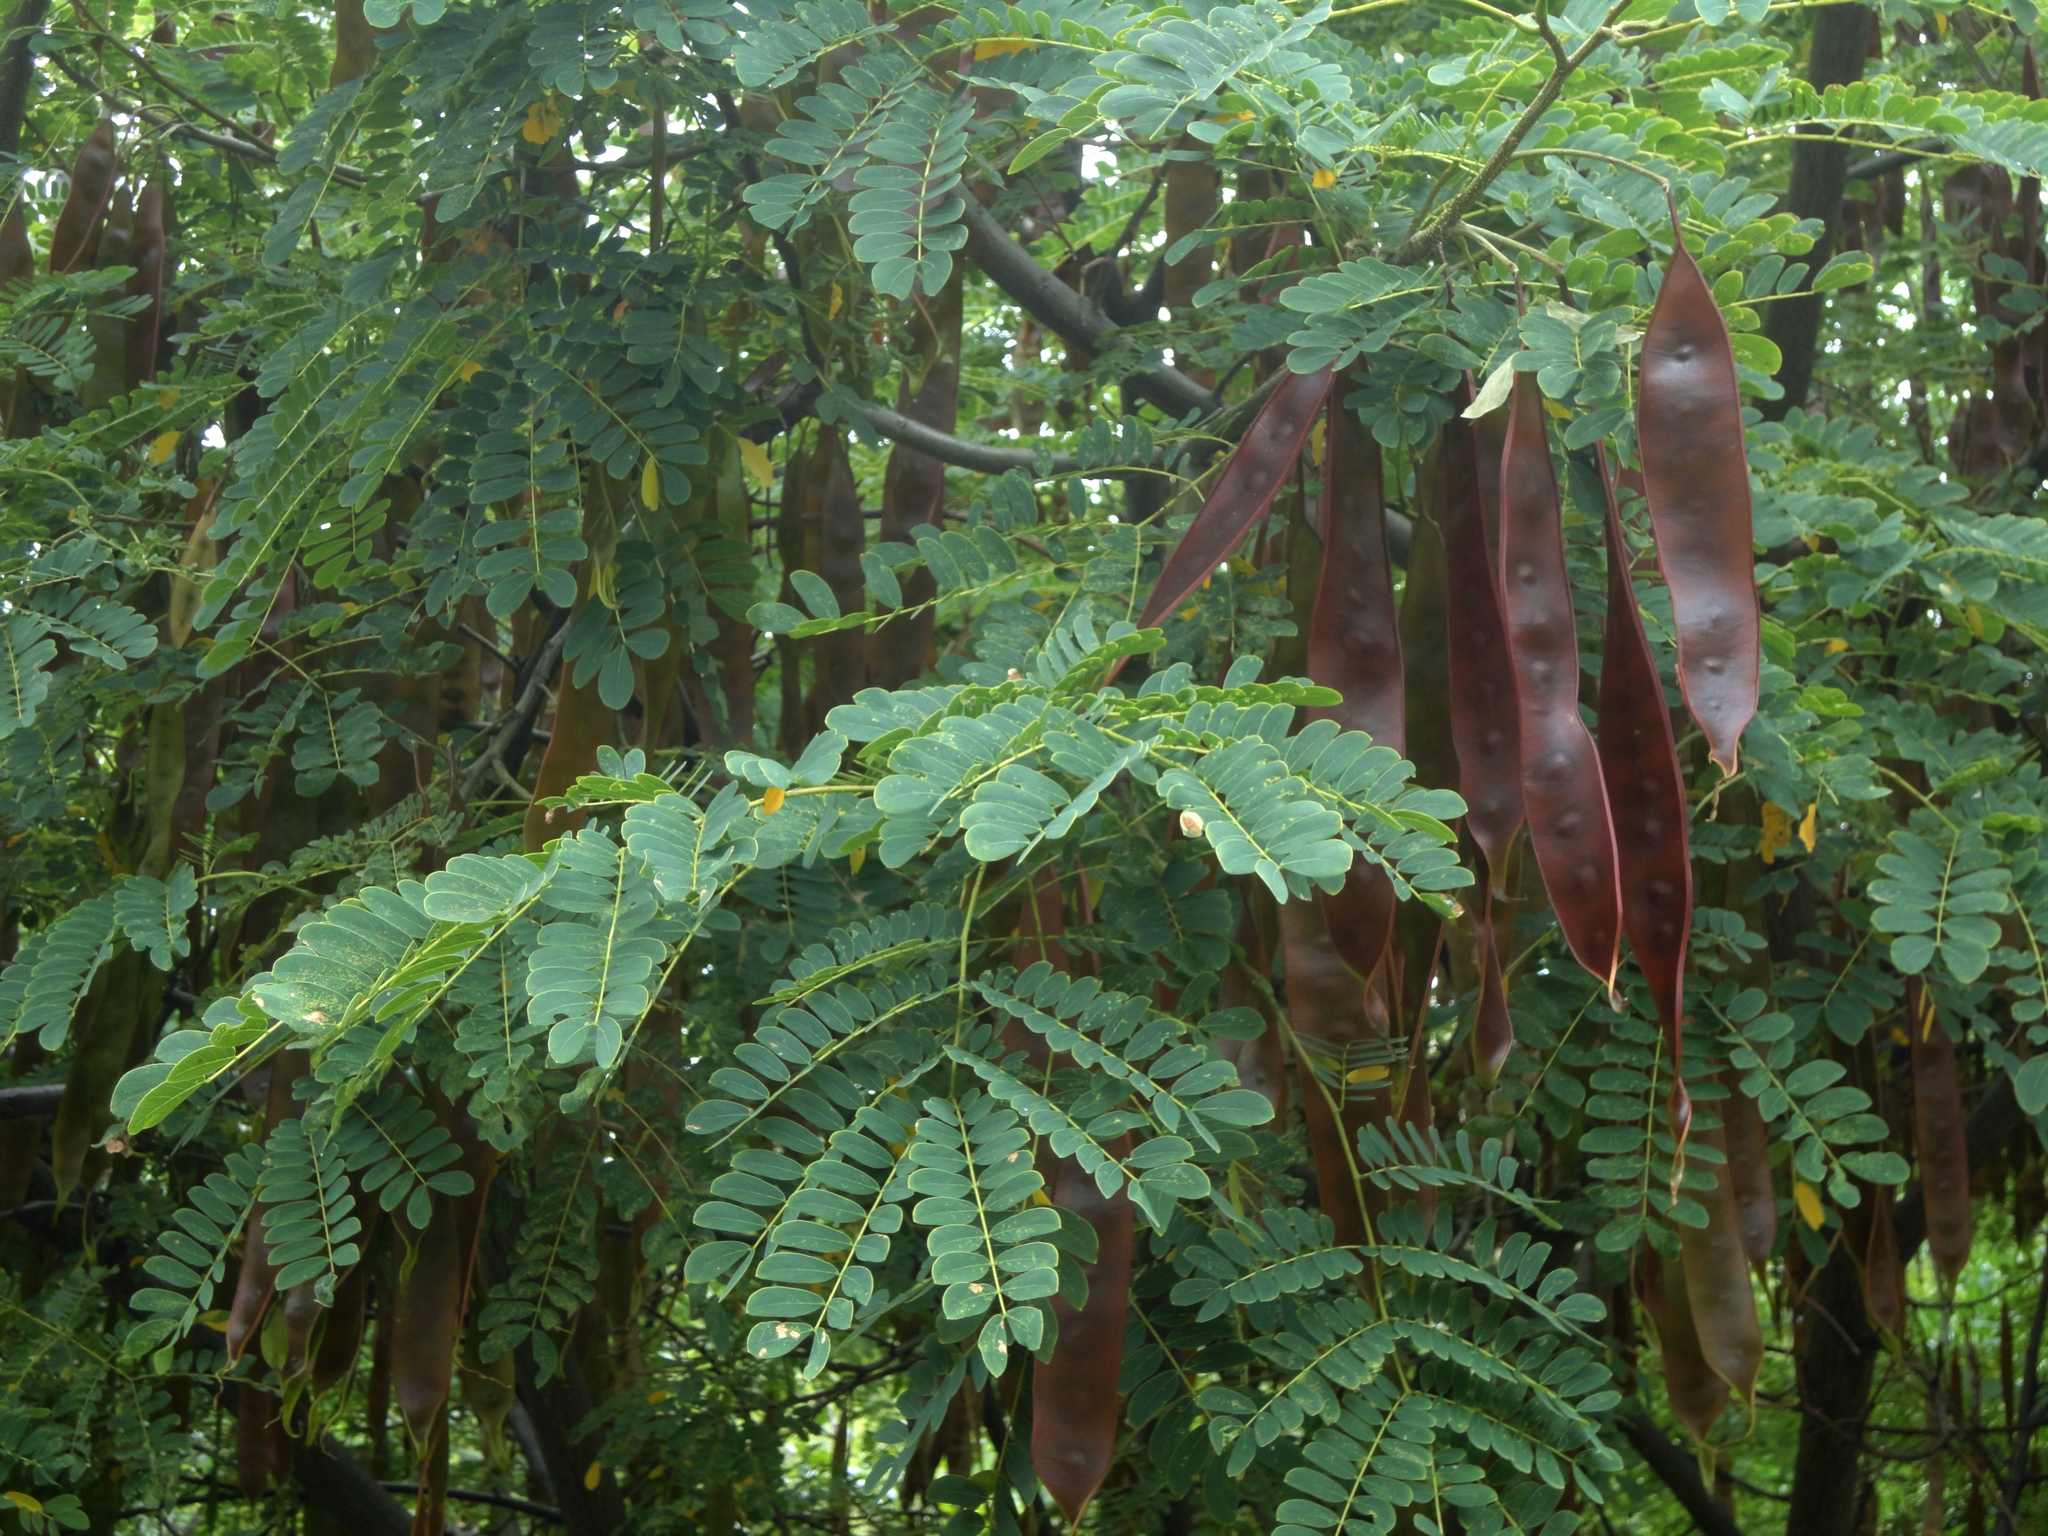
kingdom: Plantae
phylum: Tracheophyta
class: Magnoliopsida
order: Fabales
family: Fabaceae
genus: Albizia
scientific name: Albizia occidentalis
